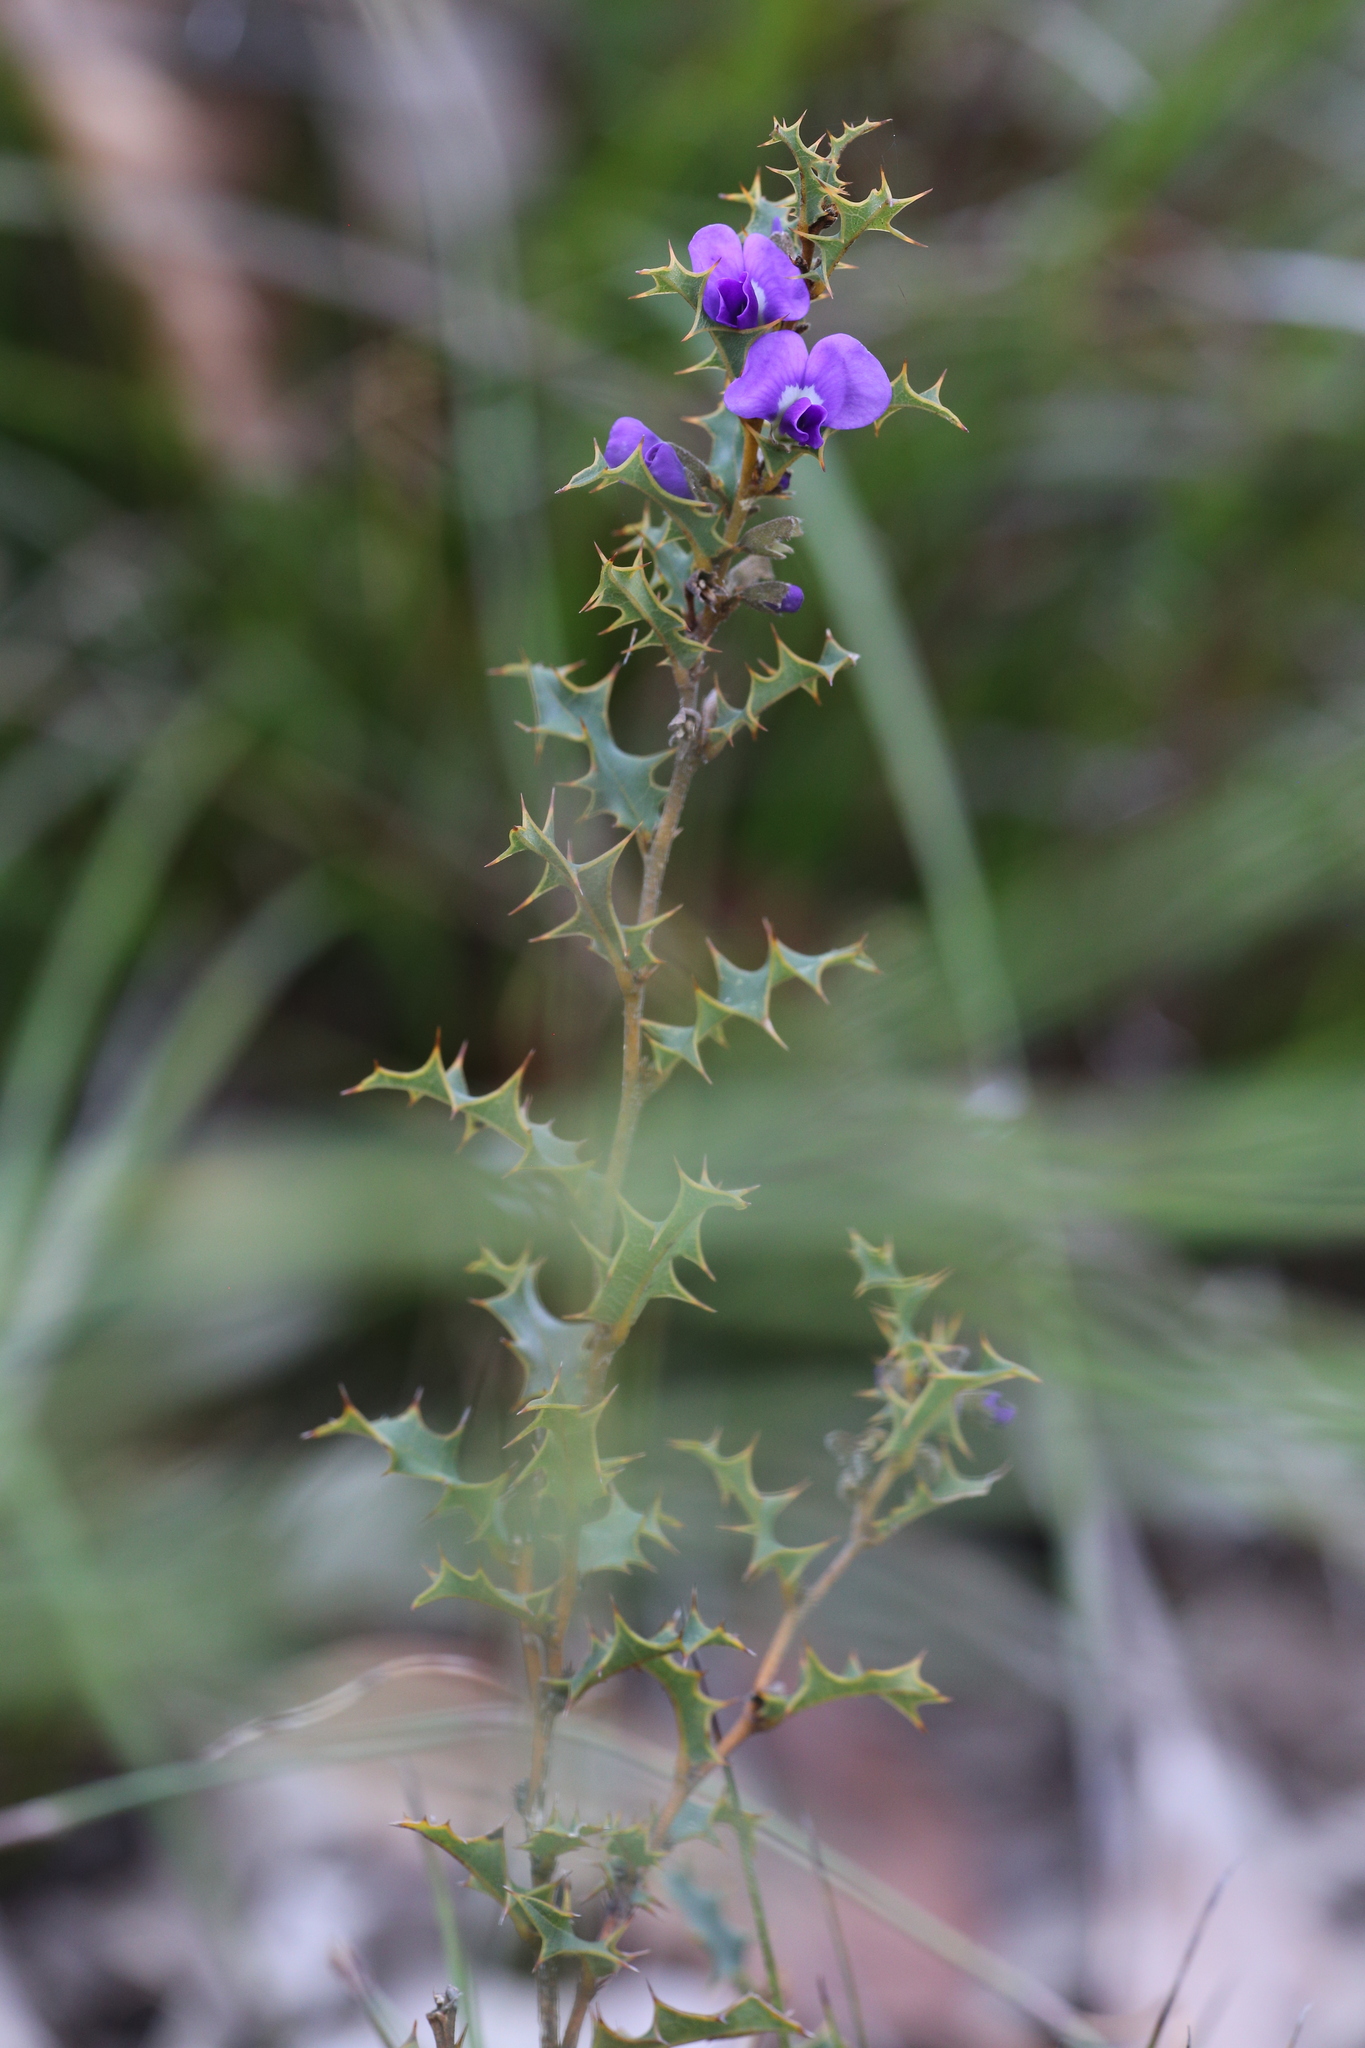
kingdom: Plantae
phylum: Tracheophyta
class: Magnoliopsida
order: Fabales
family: Fabaceae
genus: Hovea
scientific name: Hovea chorizemifolia
